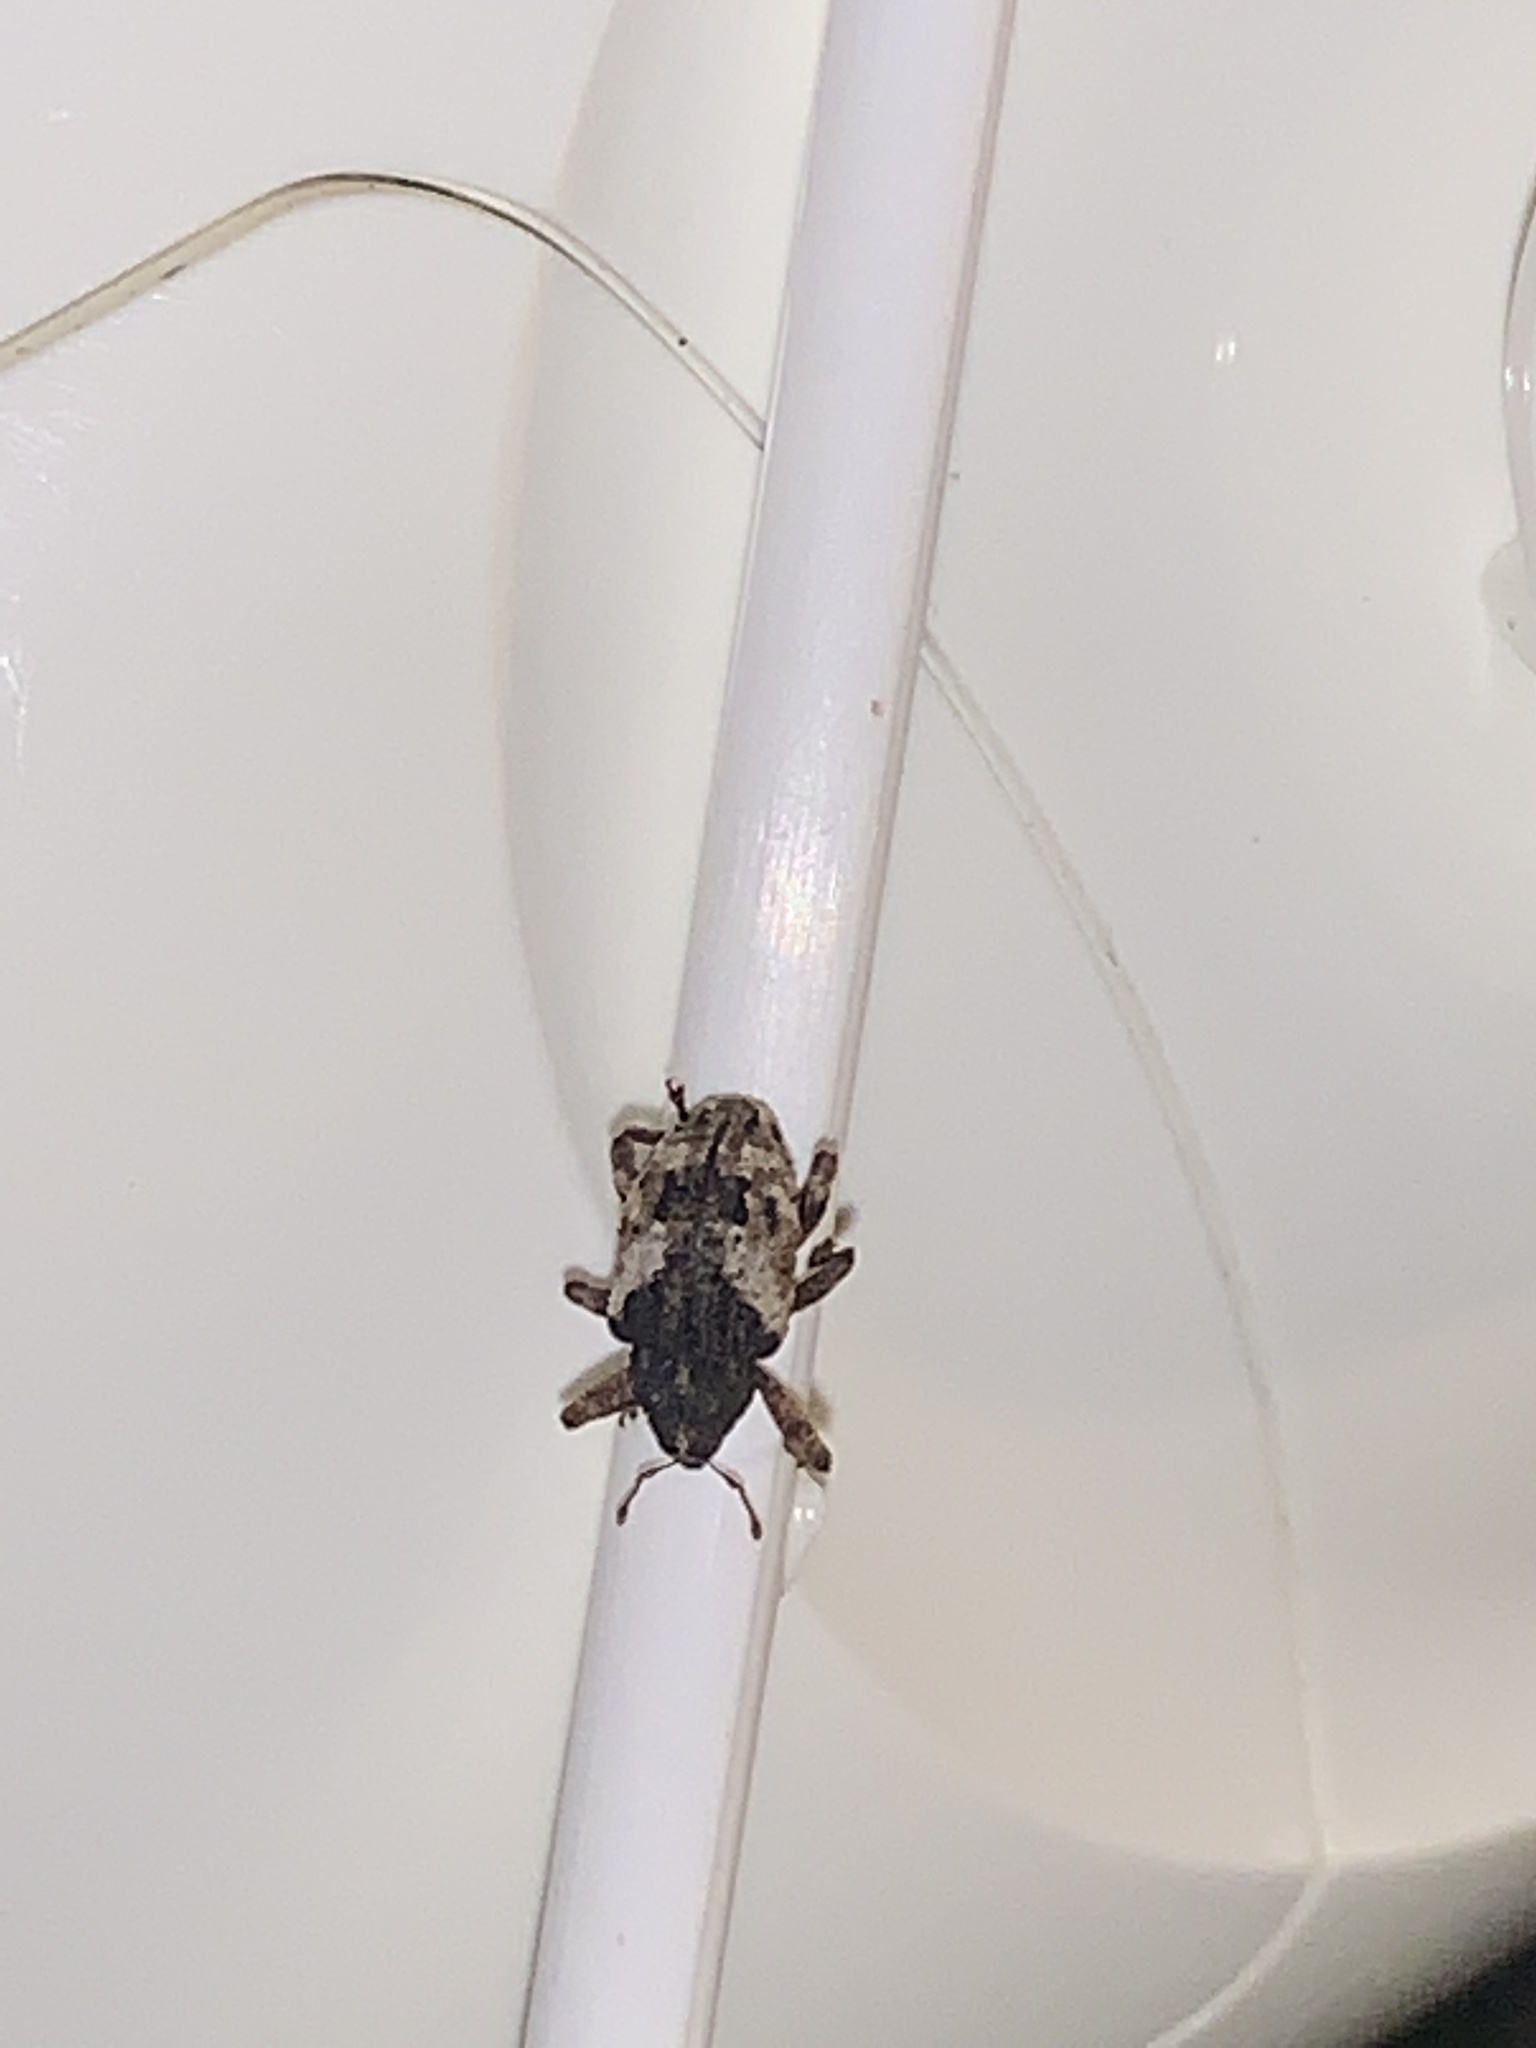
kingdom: Animalia
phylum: Arthropoda
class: Insecta
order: Coleoptera
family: Curculionidae
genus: Cryptorhynchus
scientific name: Cryptorhynchus fuscatus
